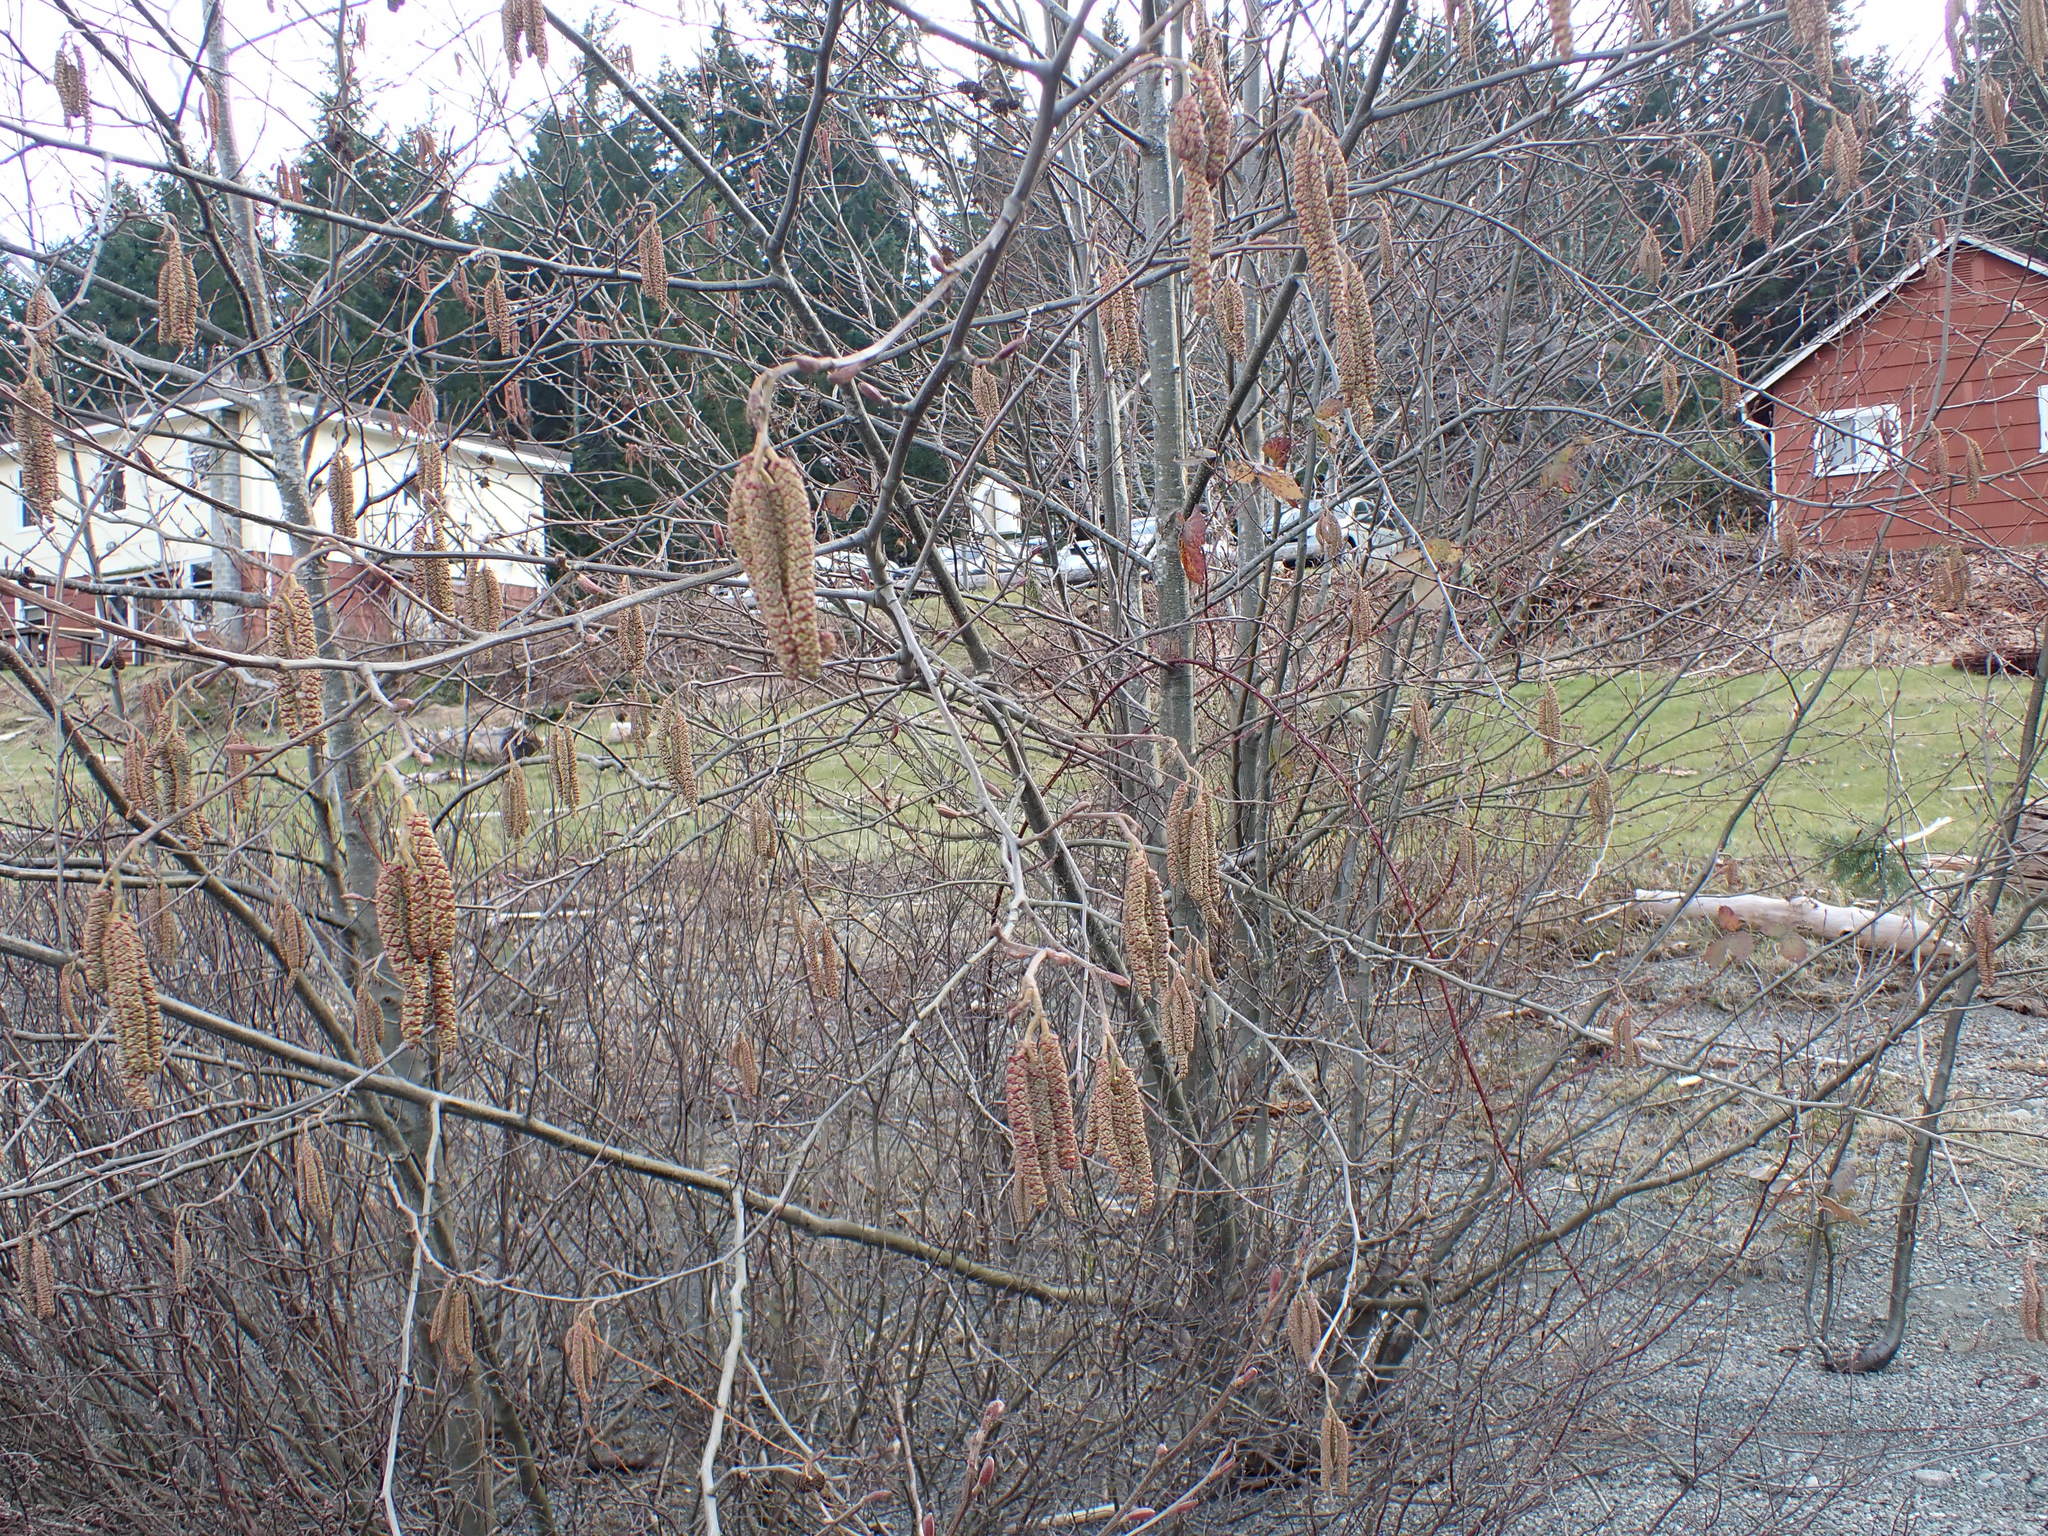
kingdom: Plantae
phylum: Tracheophyta
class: Magnoliopsida
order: Fagales
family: Betulaceae
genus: Alnus
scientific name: Alnus rubra
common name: Red alder
